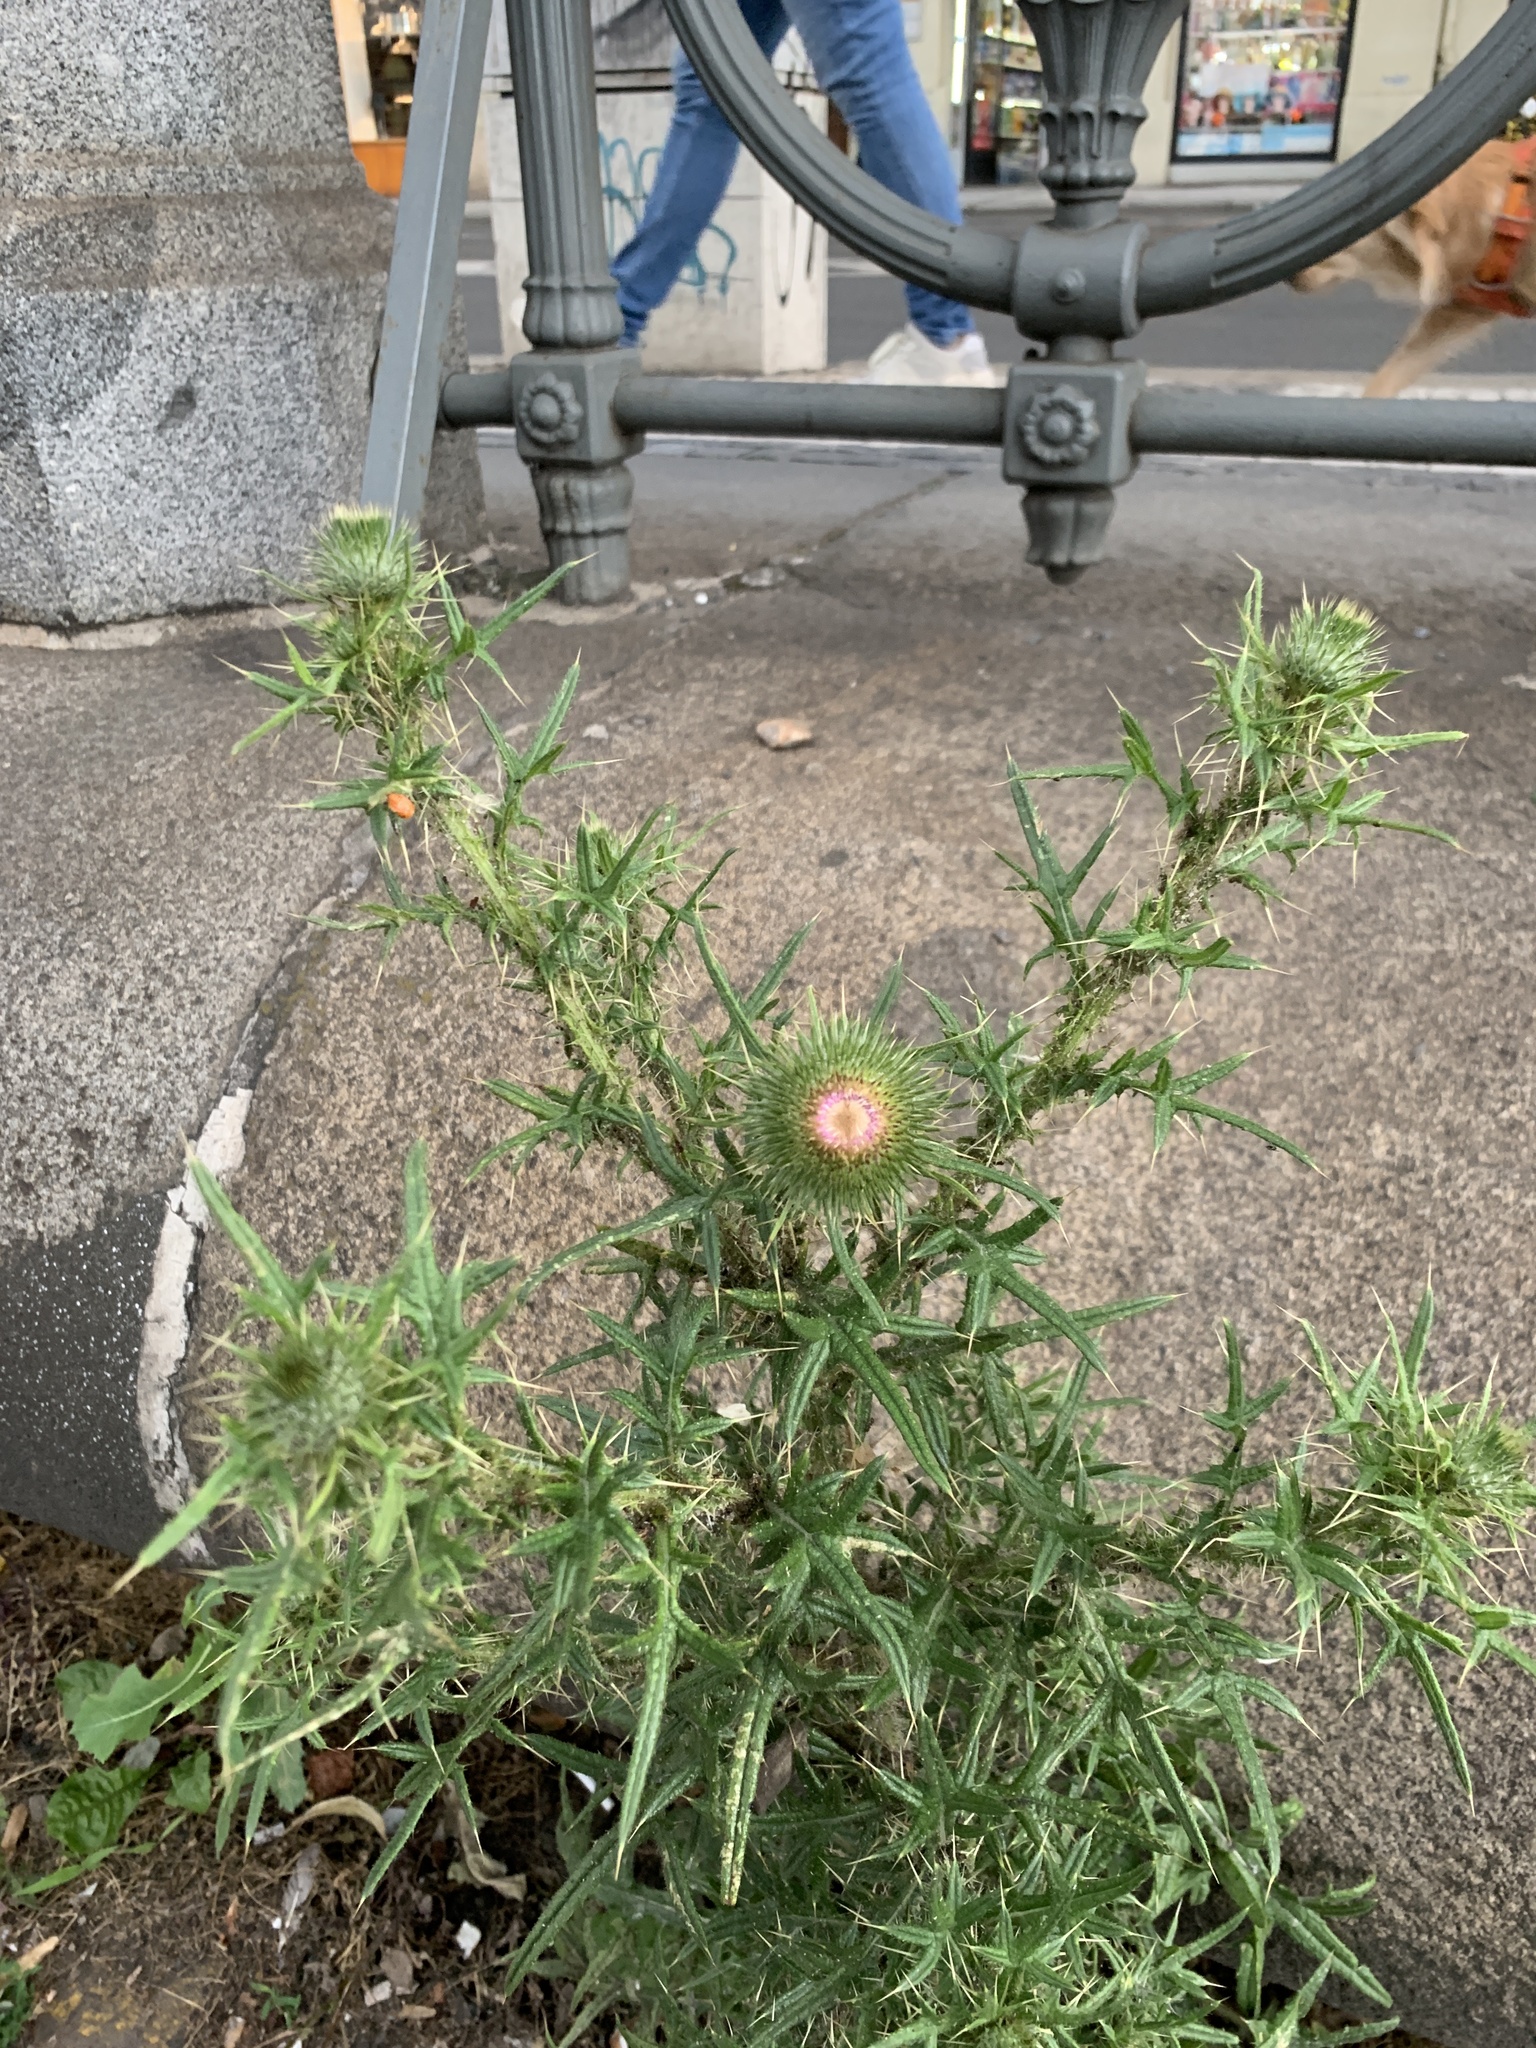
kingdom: Plantae
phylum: Tracheophyta
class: Magnoliopsida
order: Asterales
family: Asteraceae
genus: Cirsium
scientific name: Cirsium vulgare
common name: Bull thistle
